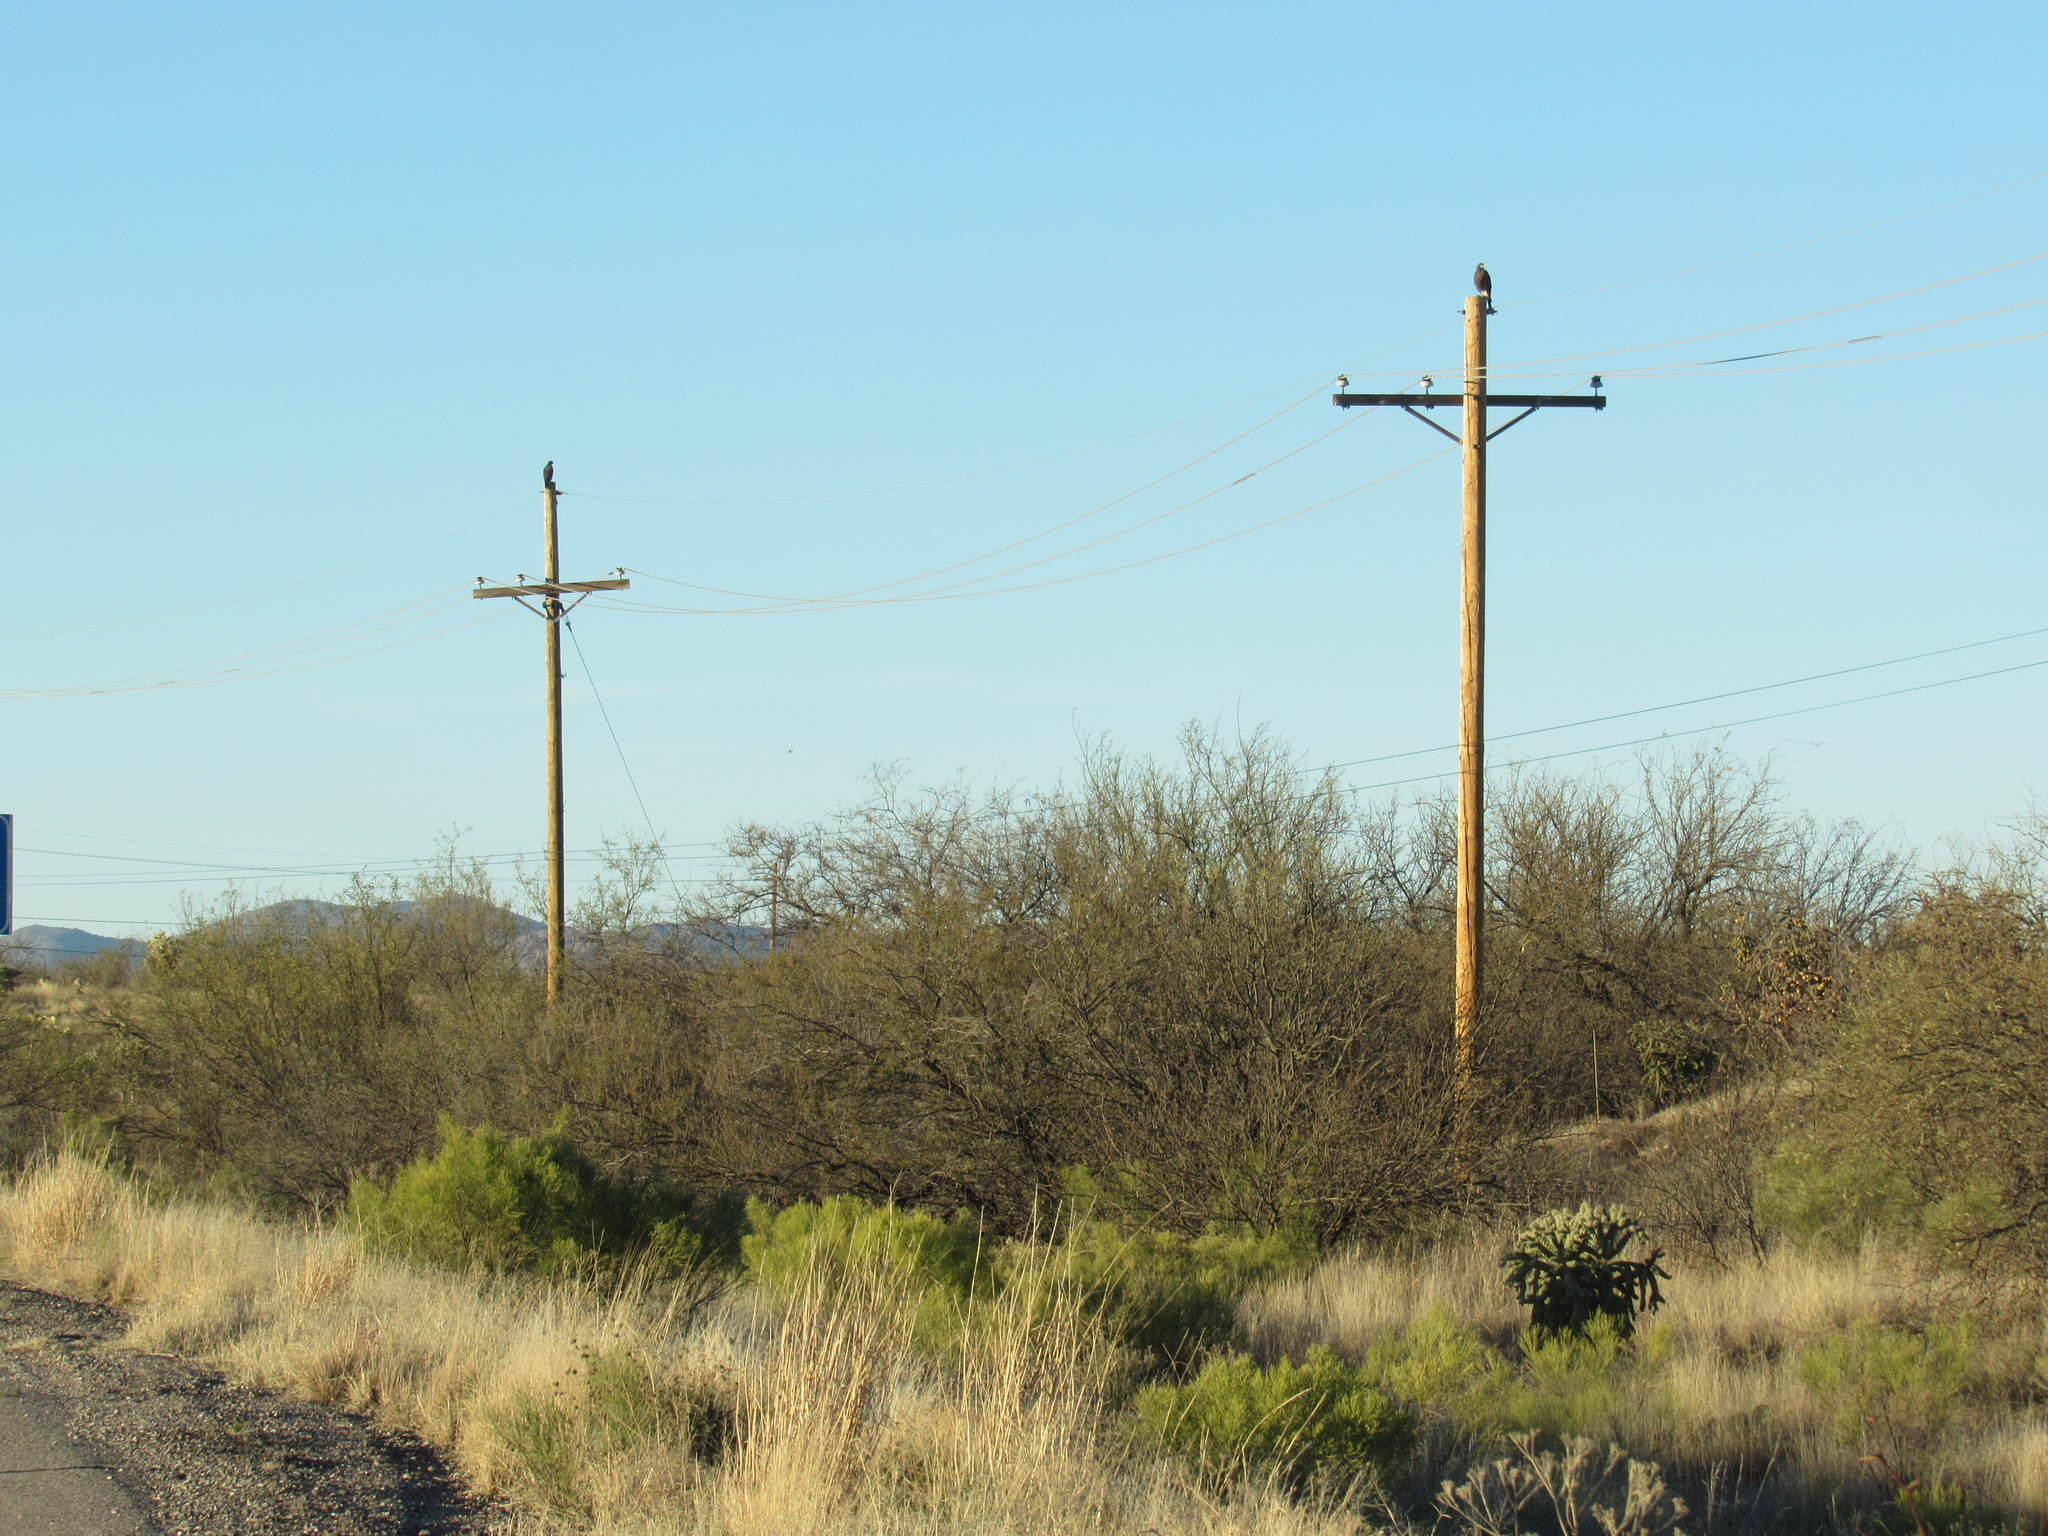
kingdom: Animalia
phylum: Chordata
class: Aves
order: Accipitriformes
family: Accipitridae
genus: Parabuteo
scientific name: Parabuteo unicinctus
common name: Harris's hawk
